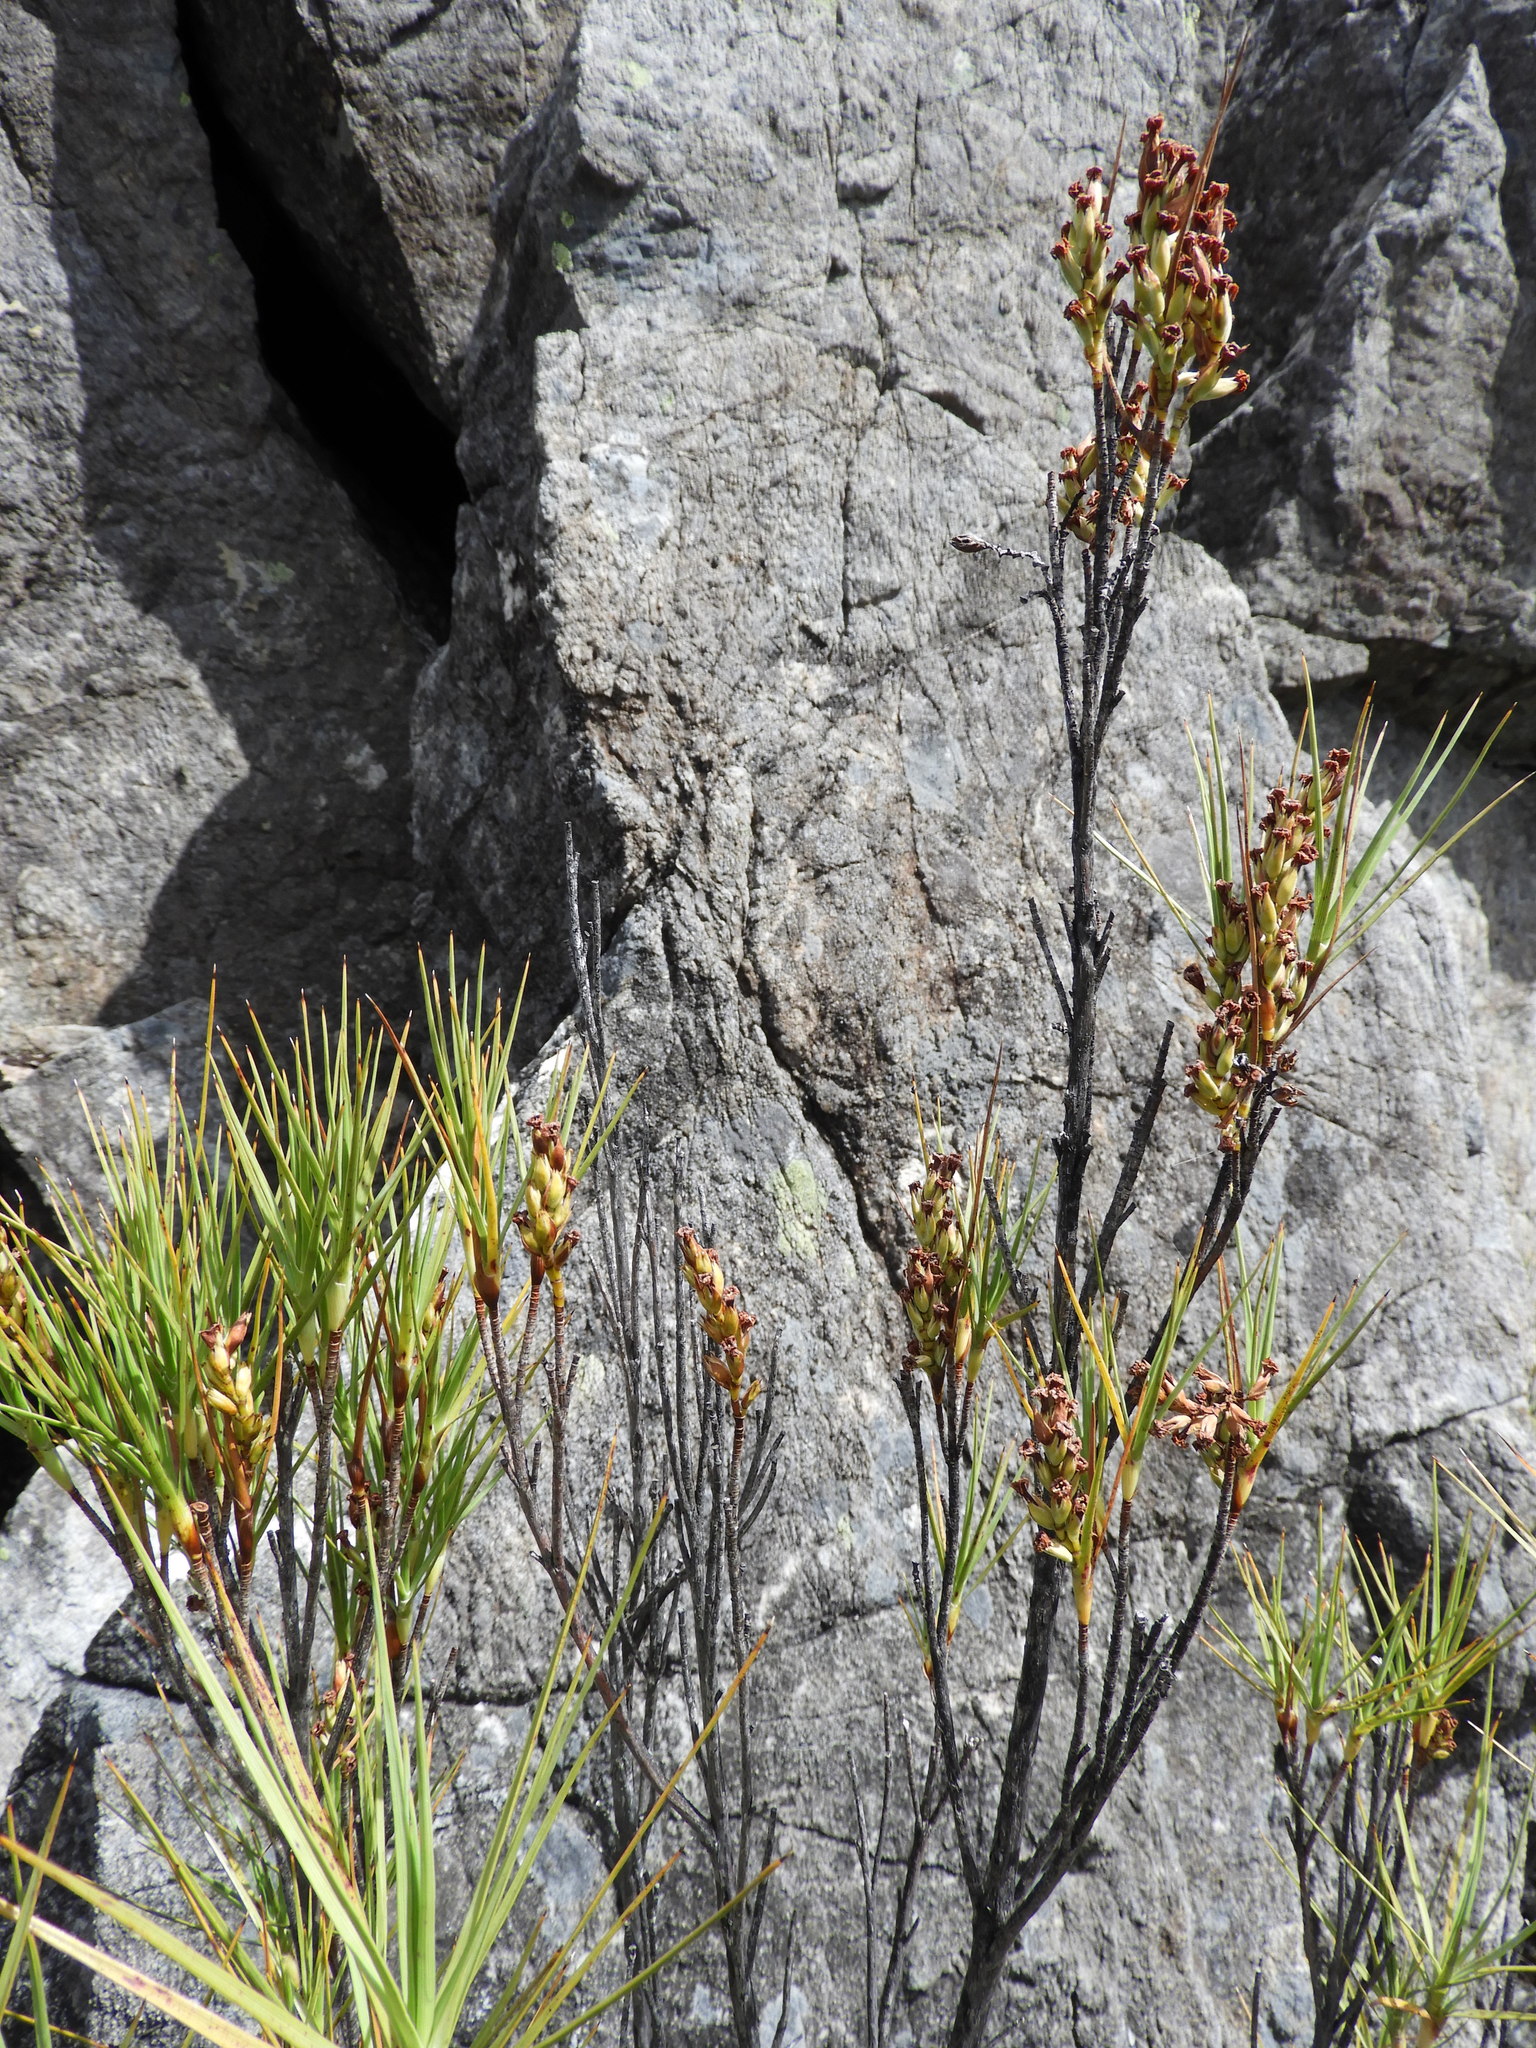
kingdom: Plantae
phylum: Tracheophyta
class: Magnoliopsida
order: Ericales
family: Ericaceae
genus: Dracophyllum
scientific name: Dracophyllum longifolium
